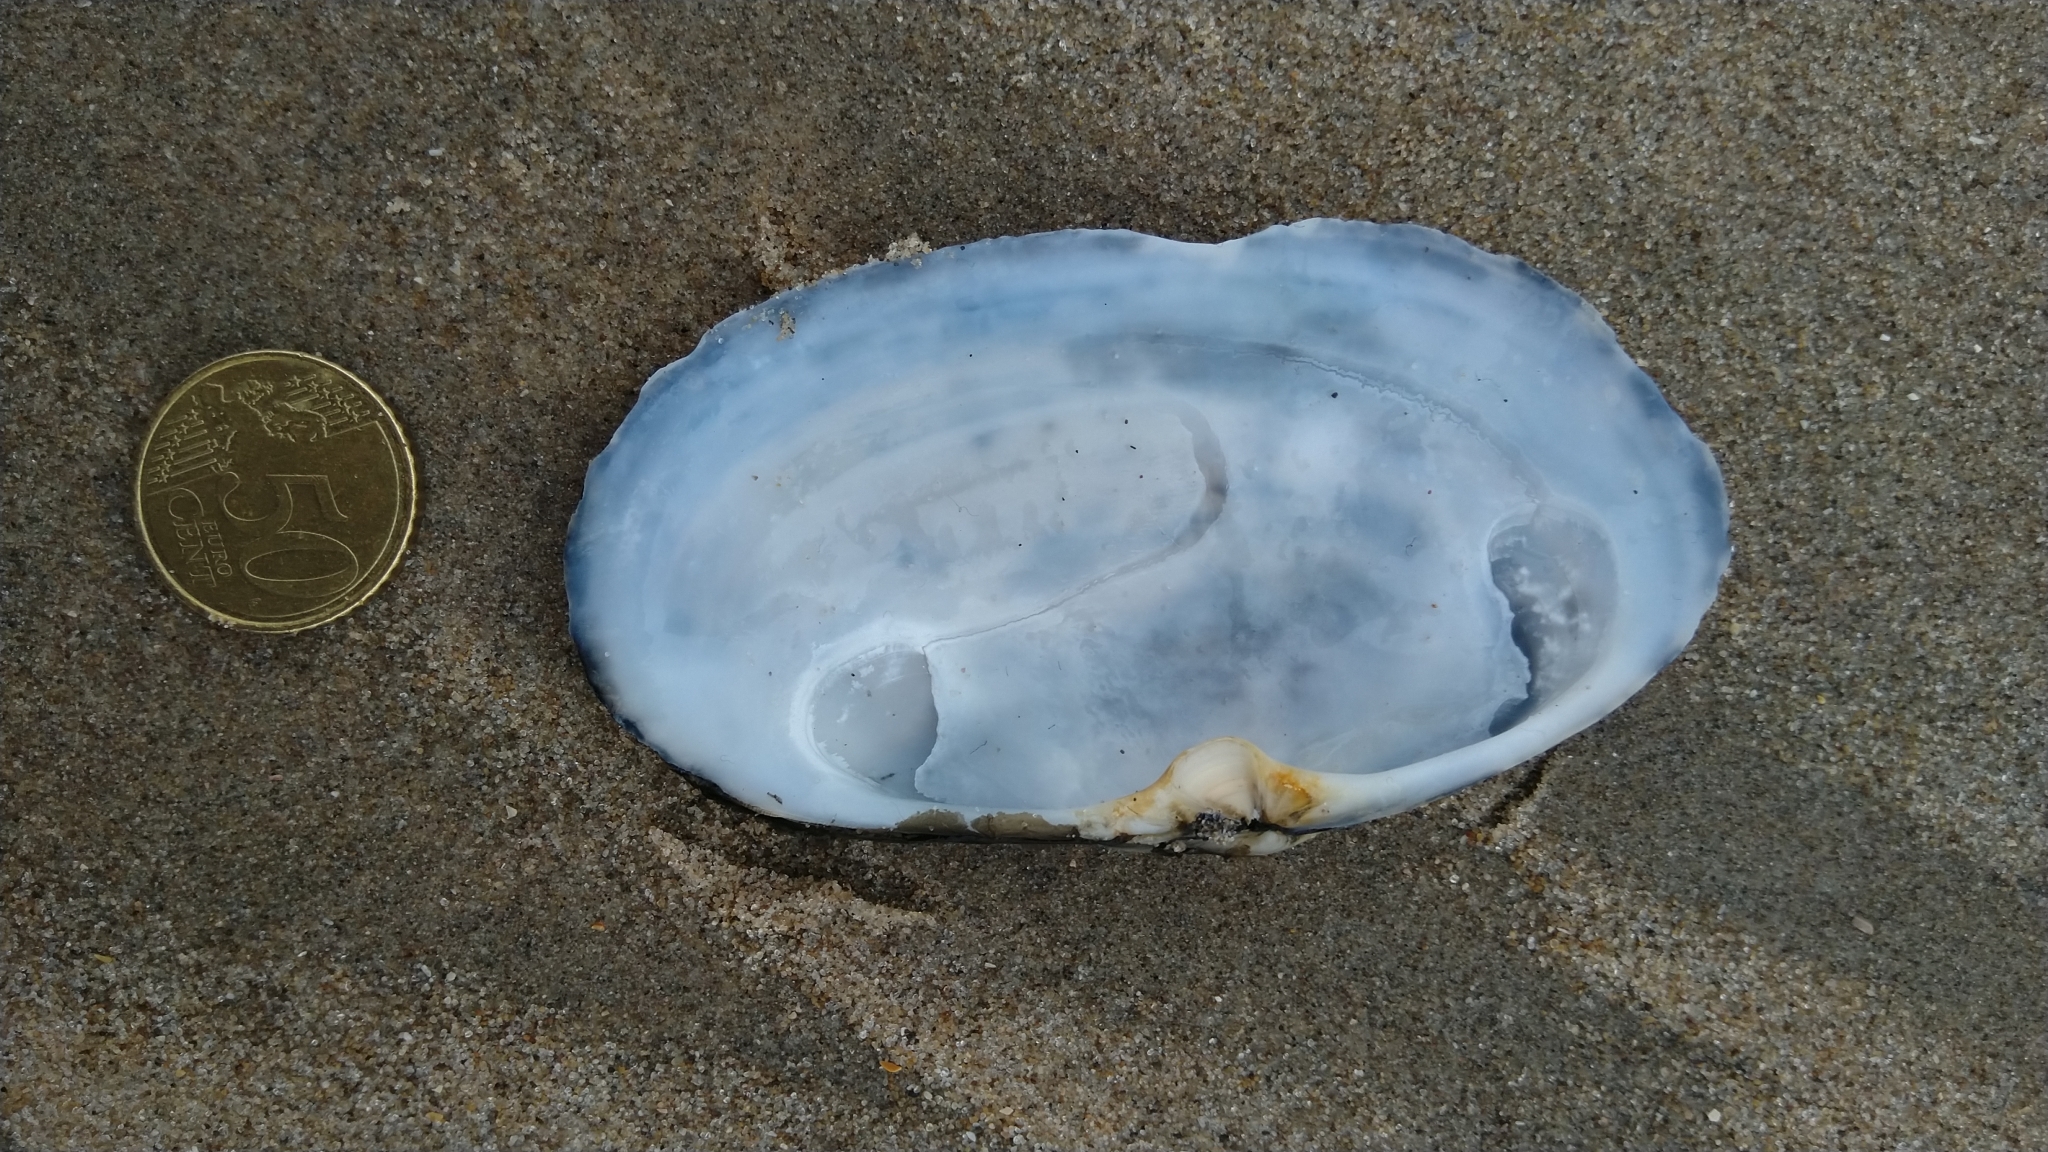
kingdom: Animalia
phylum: Mollusca
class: Bivalvia
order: Venerida
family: Mactridae
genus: Lutraria
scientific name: Lutraria lutraria
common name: Common otter shell
